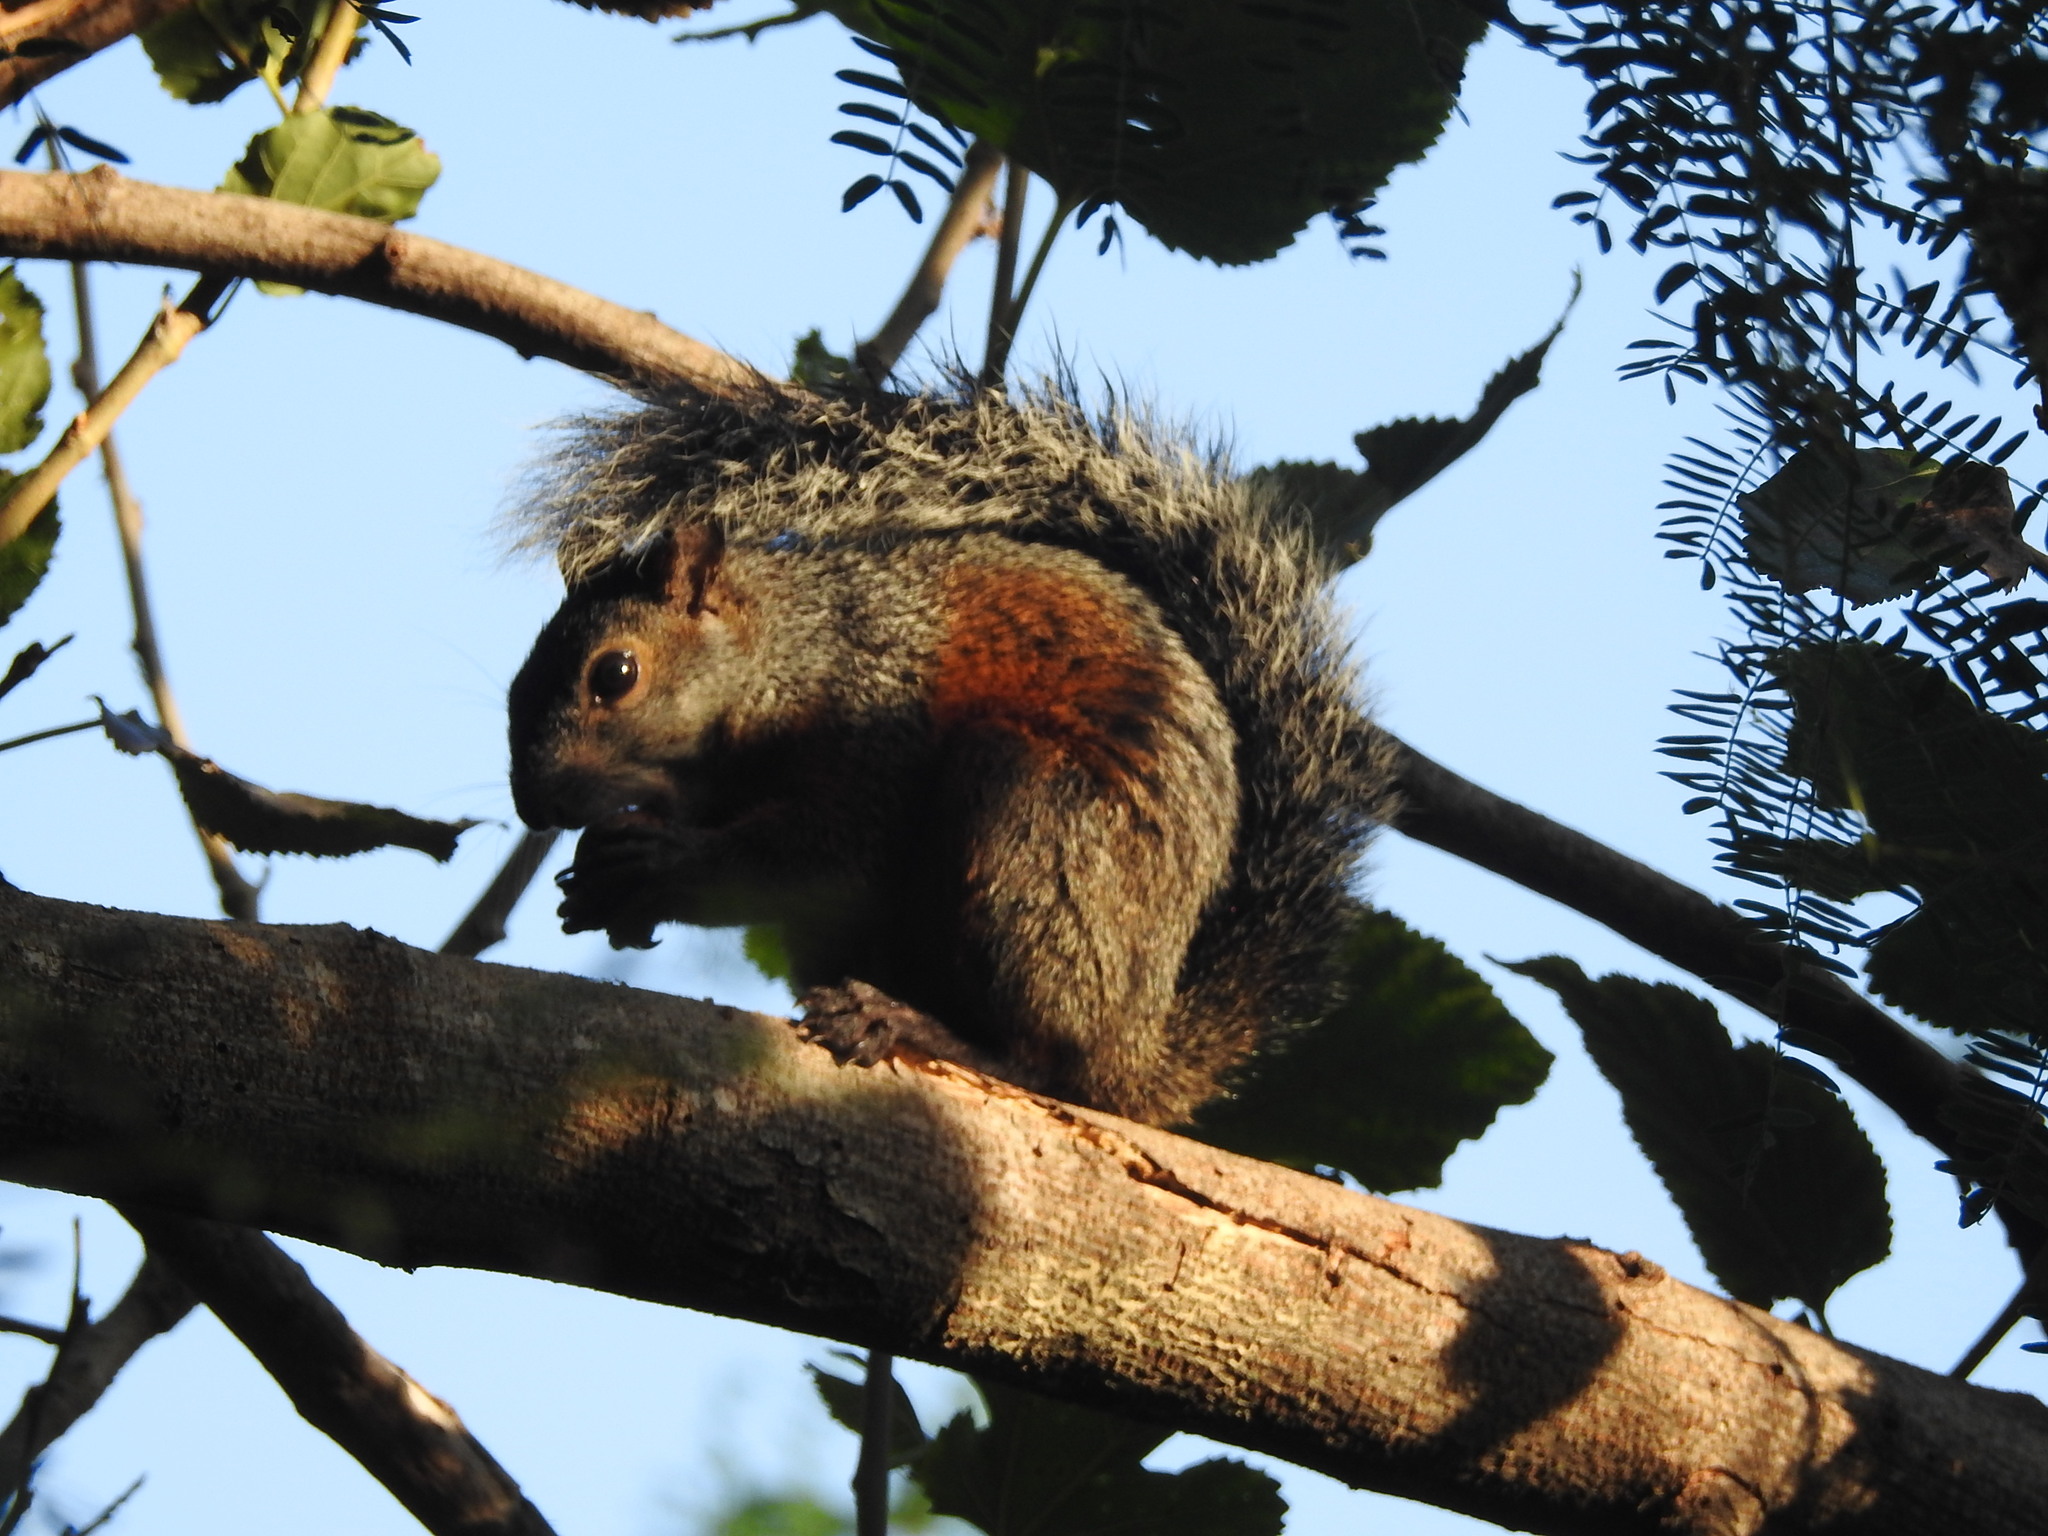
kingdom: Animalia
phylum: Chordata
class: Mammalia
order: Rodentia
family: Sciuridae
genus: Sciurus
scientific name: Sciurus aureogaster
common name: Red-bellied squirrel
